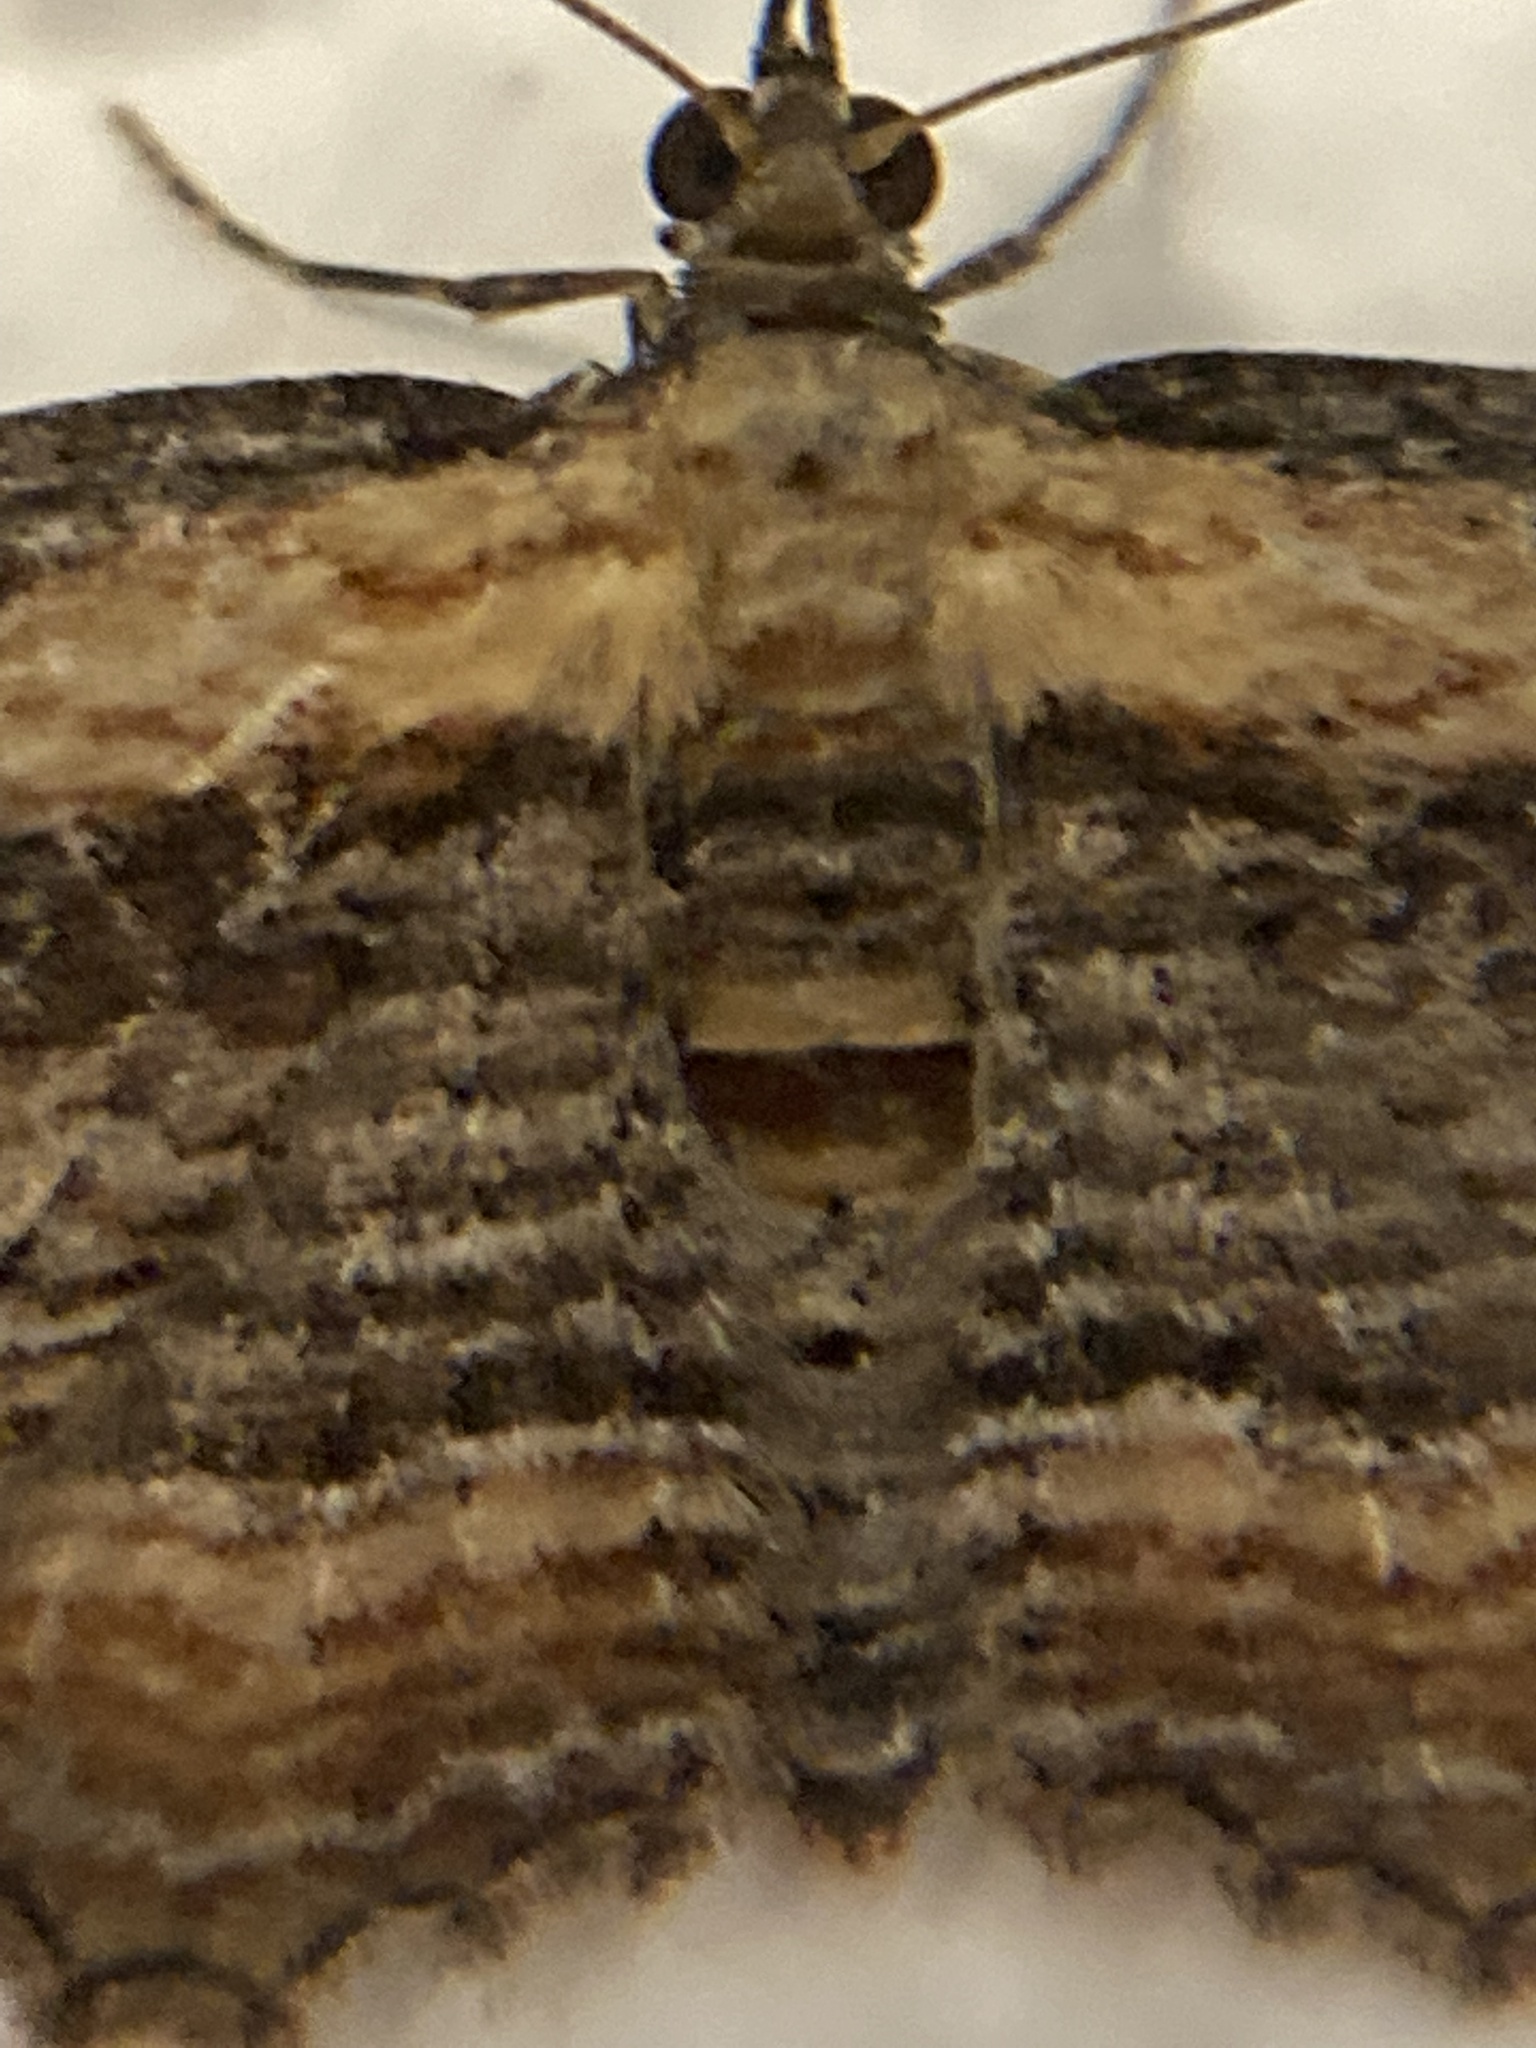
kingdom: Animalia
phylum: Arthropoda
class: Insecta
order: Lepidoptera
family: Geometridae
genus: Chloroclystis
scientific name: Chloroclystis filata
